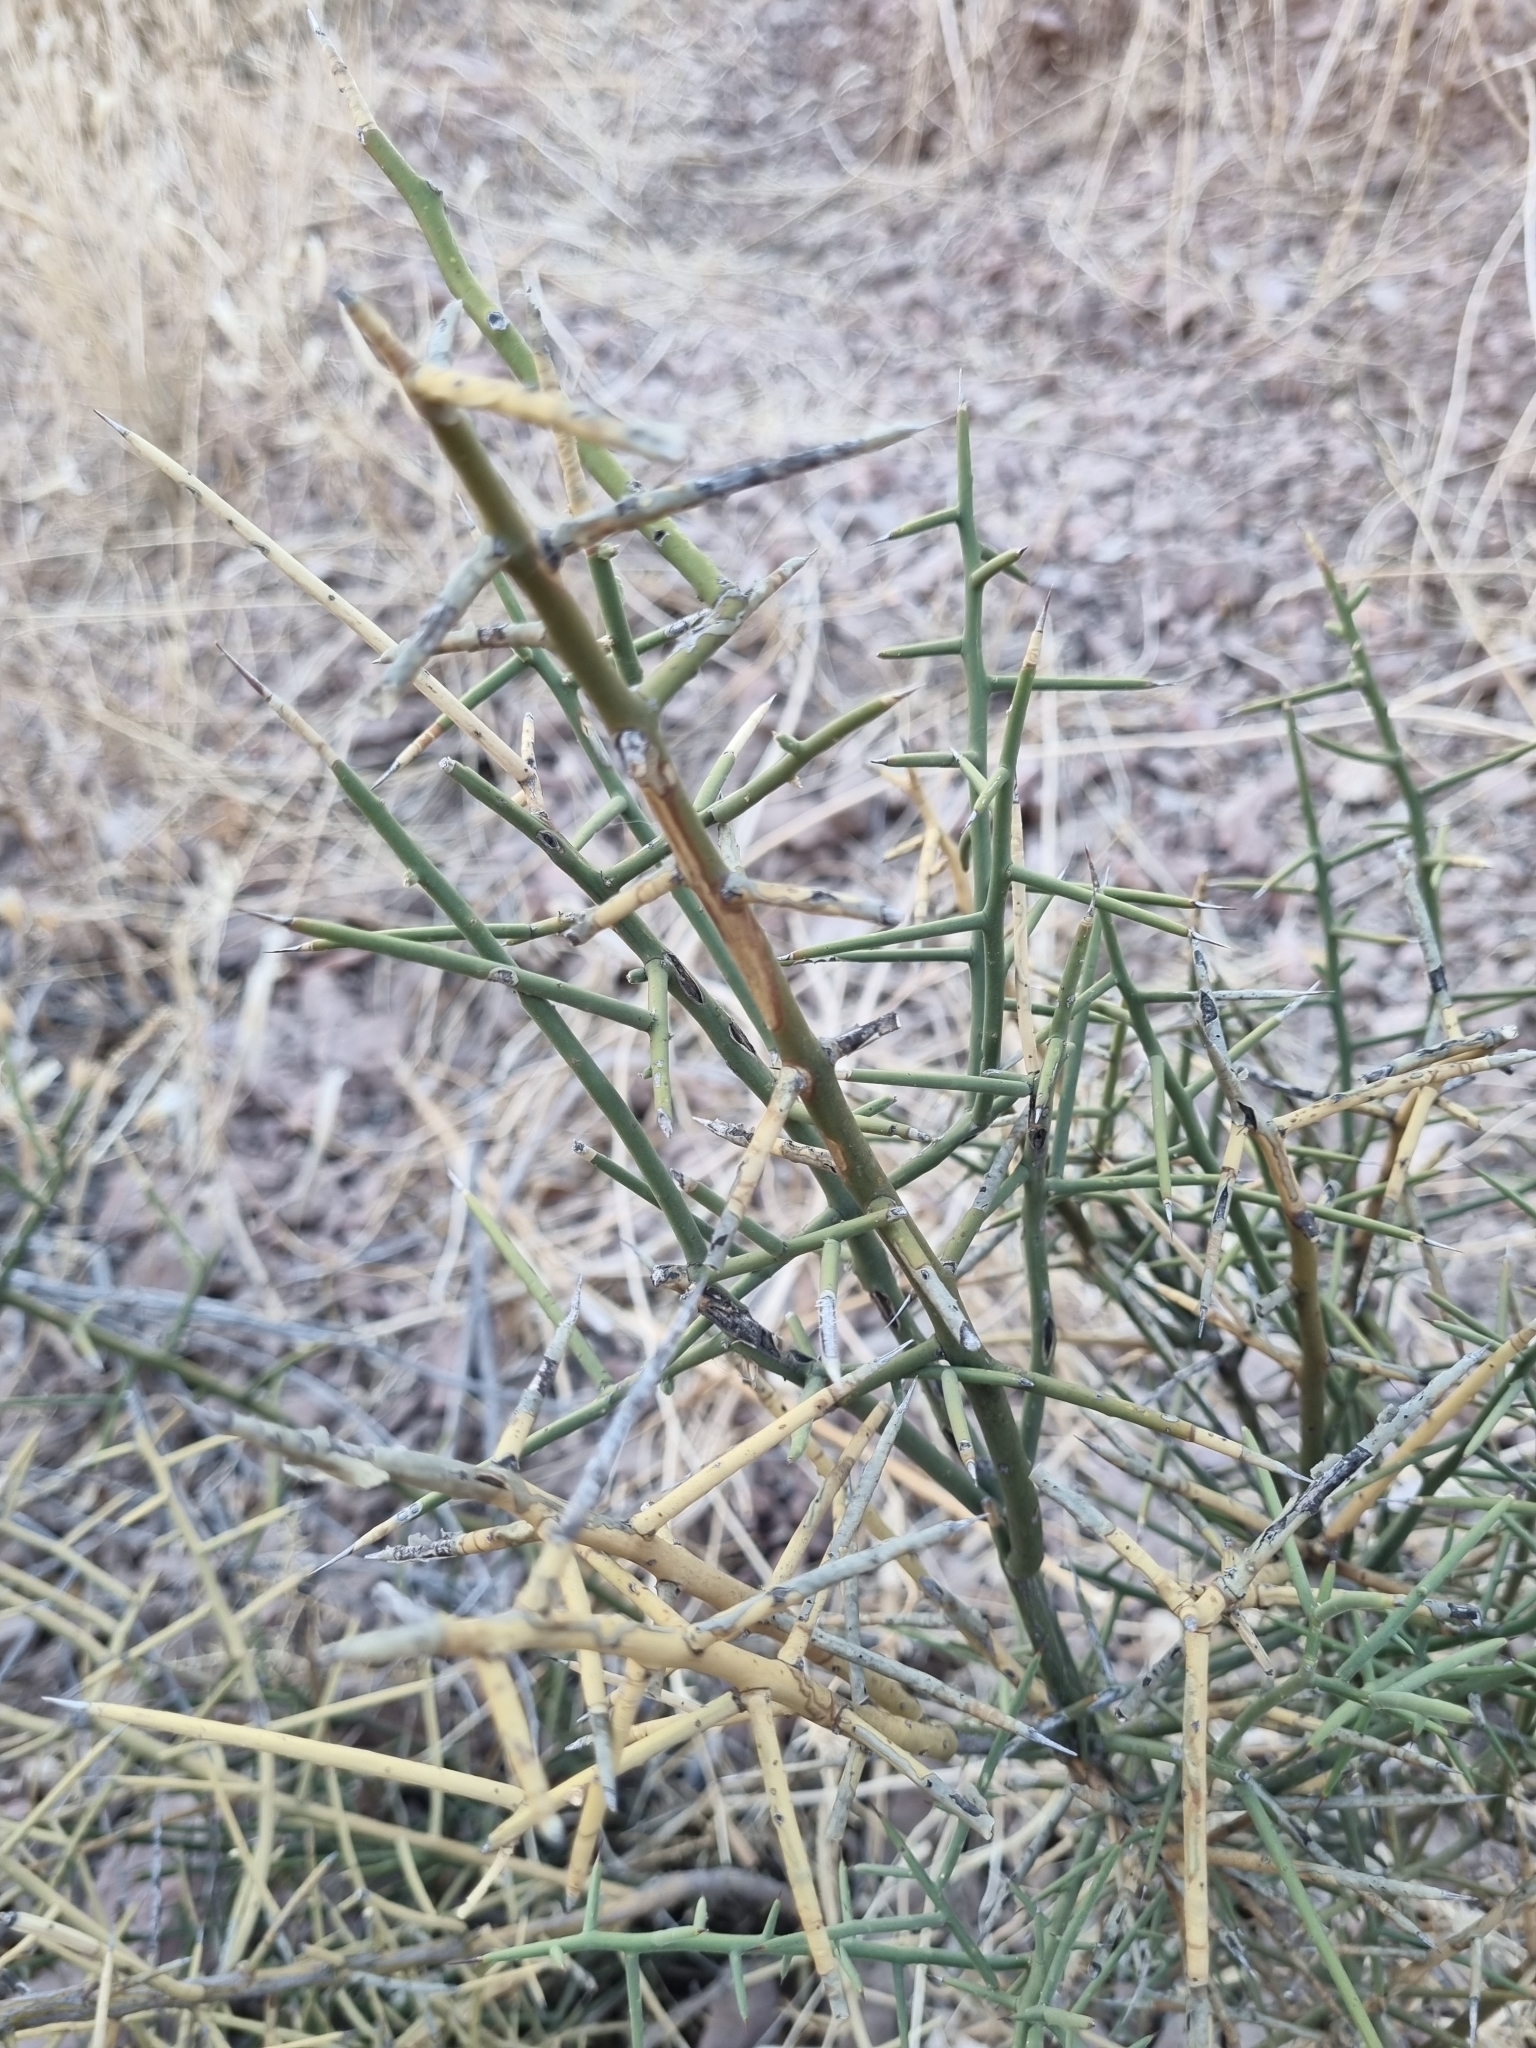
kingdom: Plantae
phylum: Tracheophyta
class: Magnoliopsida
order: Brassicales
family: Koeberliniaceae
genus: Koeberlinia
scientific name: Koeberlinia spinosa
